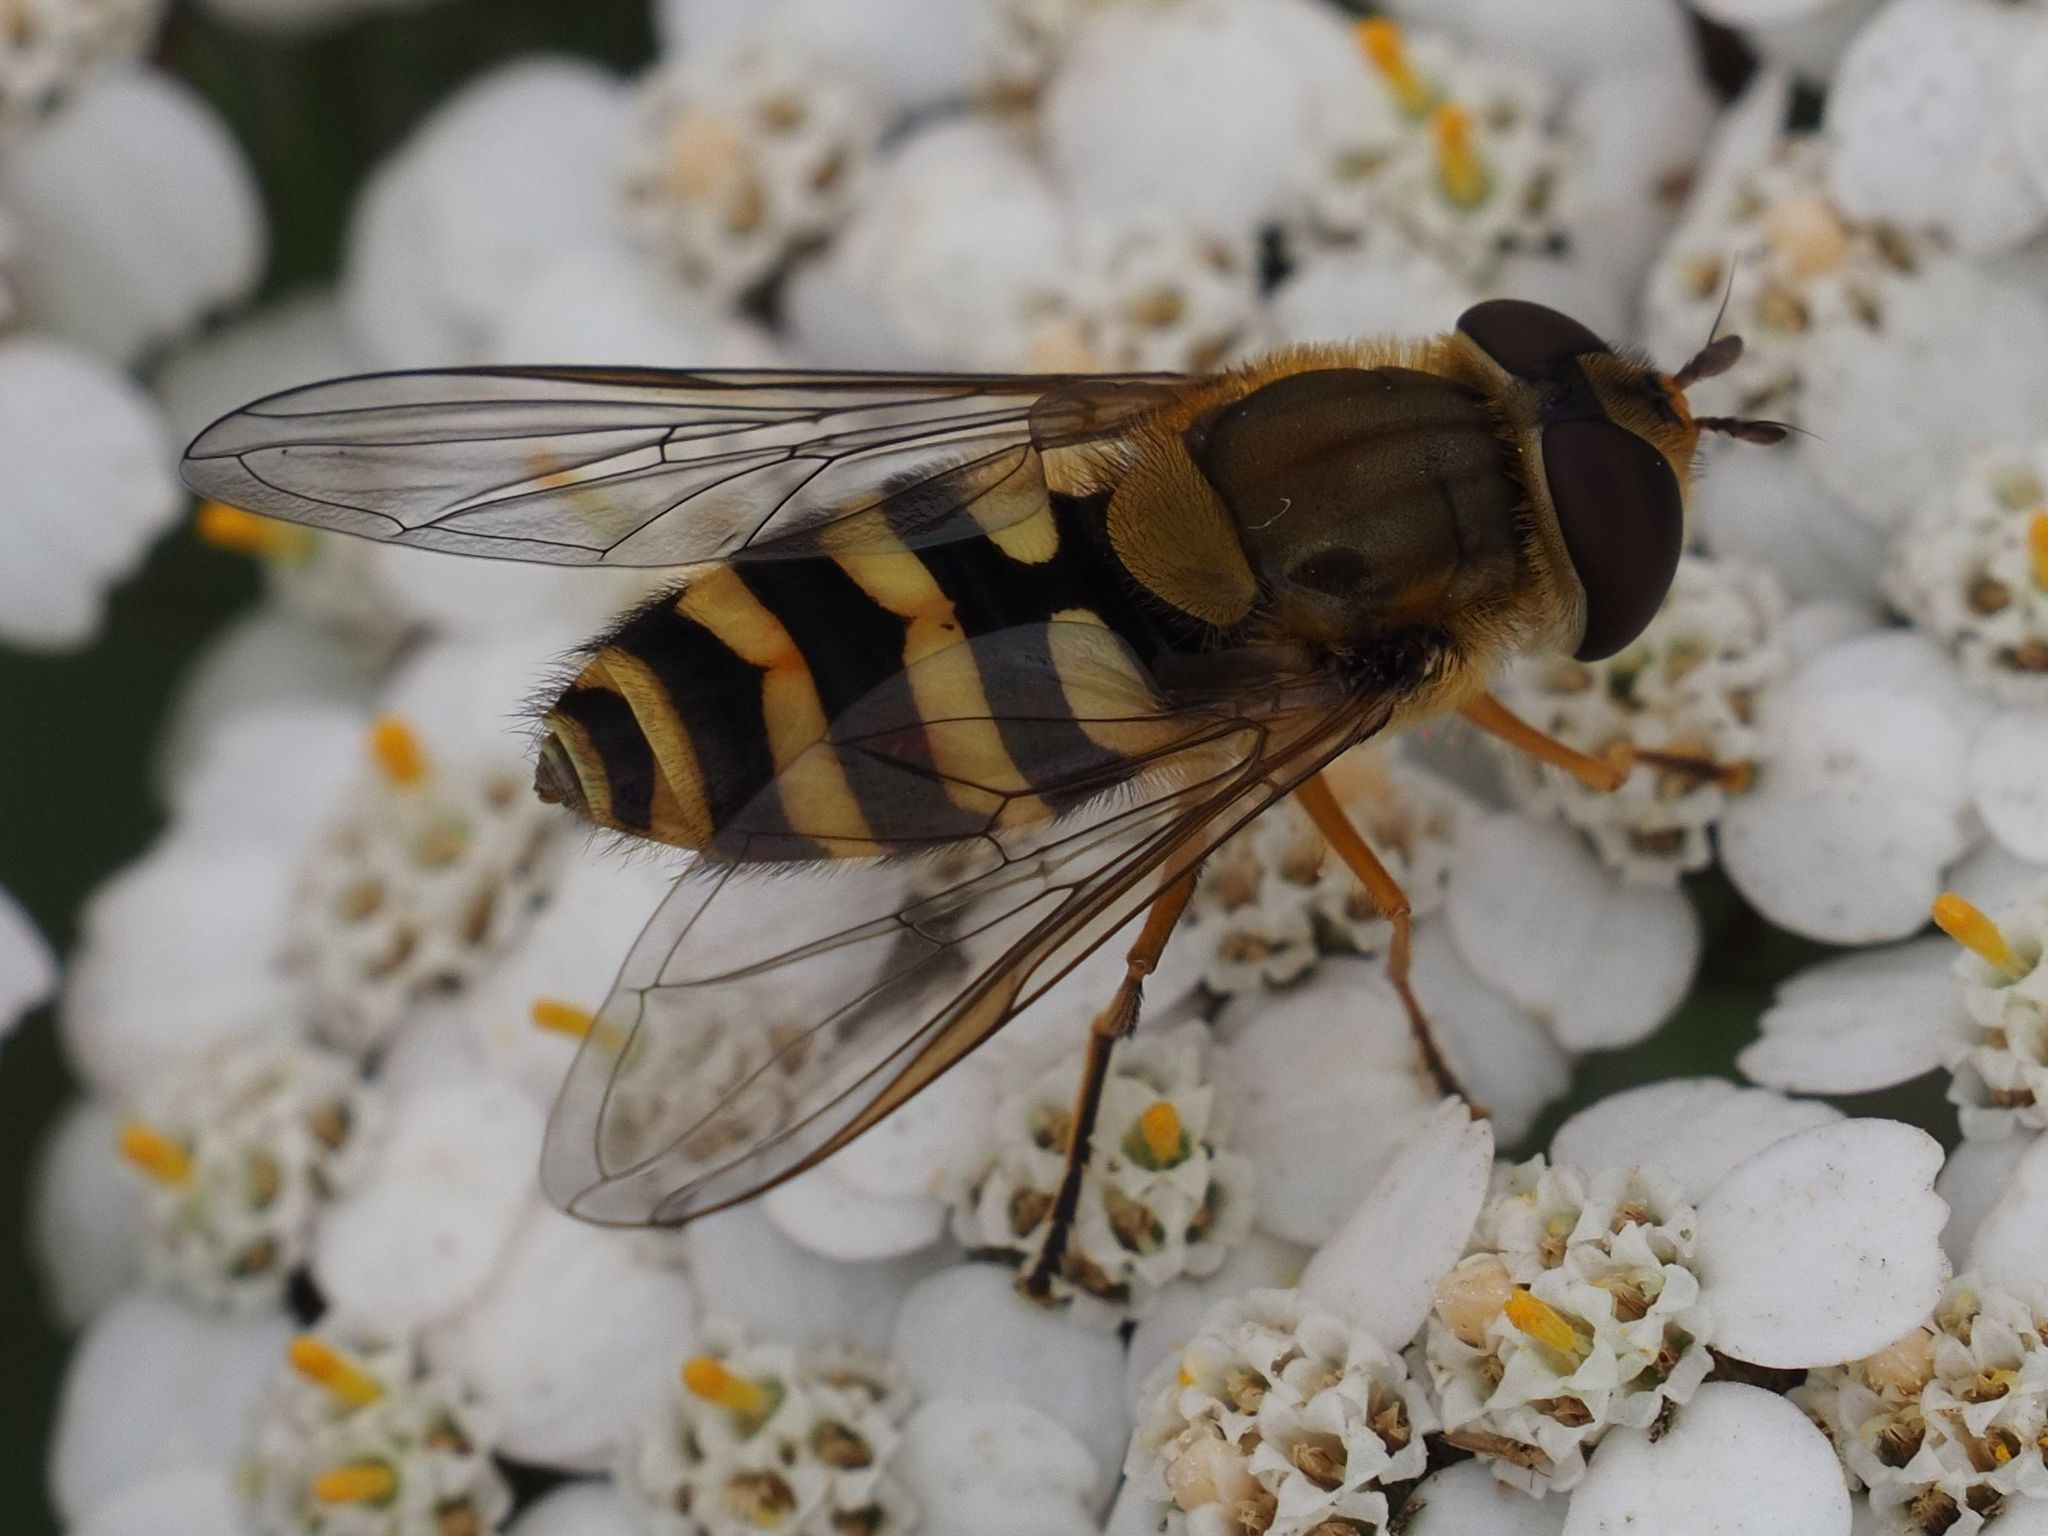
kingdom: Animalia
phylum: Arthropoda
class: Insecta
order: Diptera
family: Syrphidae
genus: Syrphus
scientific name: Syrphus ribesii
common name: Common flower fly
